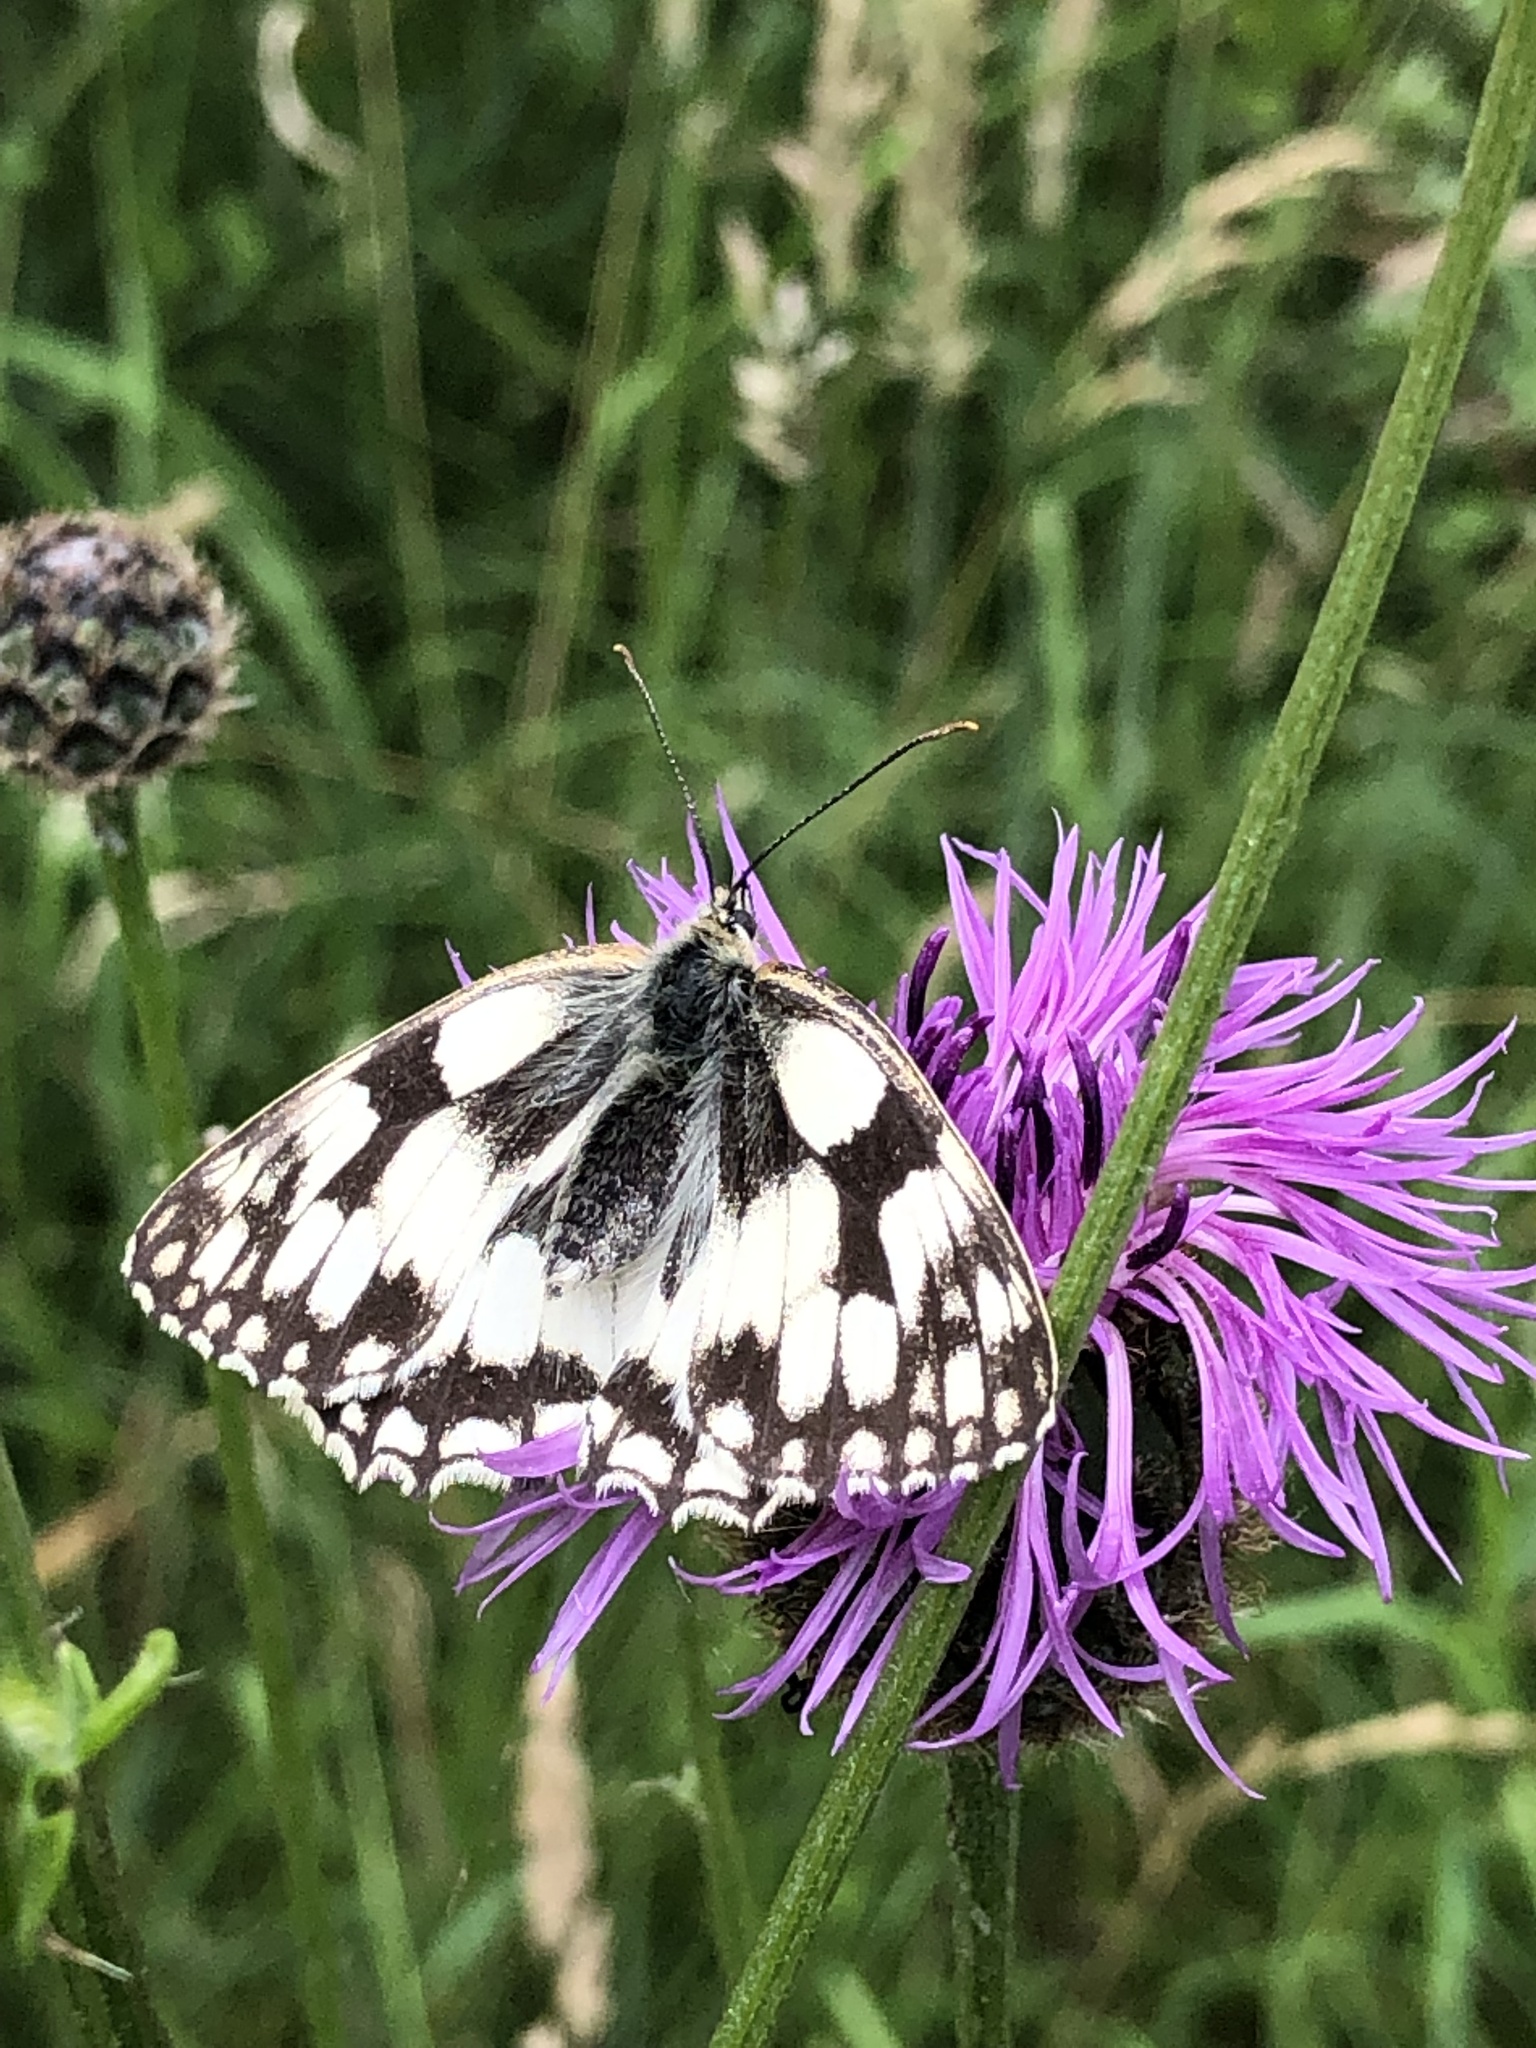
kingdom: Animalia
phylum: Arthropoda
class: Insecta
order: Lepidoptera
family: Nymphalidae
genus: Melanargia
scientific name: Melanargia galathea
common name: Marbled white
